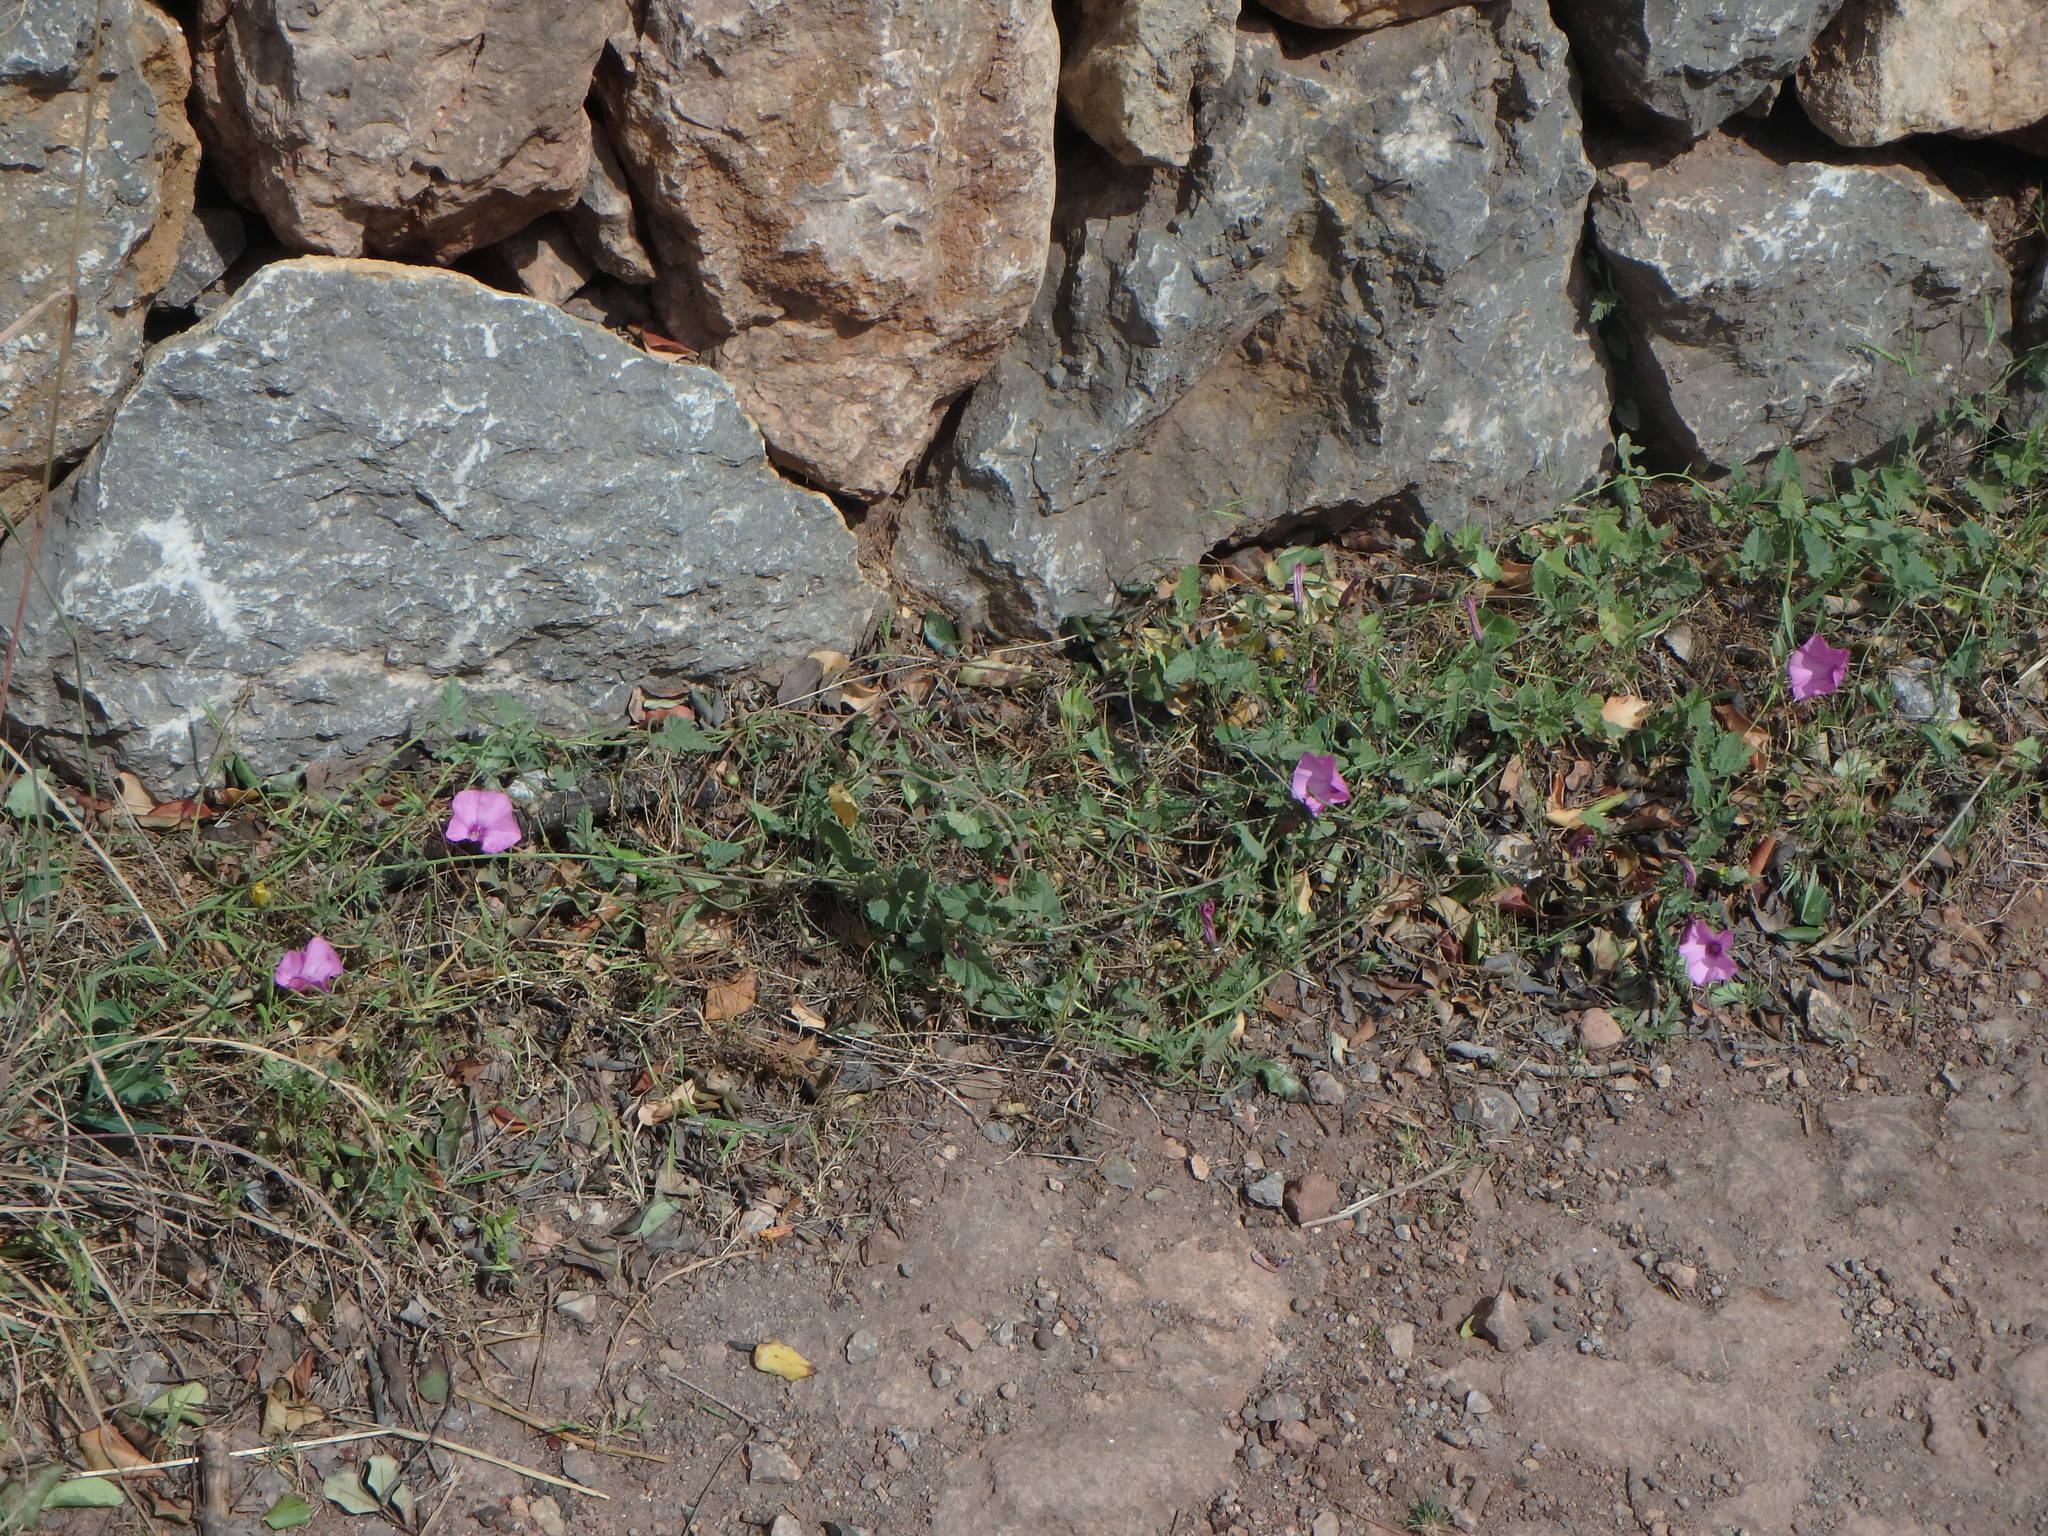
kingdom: Plantae
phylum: Tracheophyta
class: Magnoliopsida
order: Solanales
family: Convolvulaceae
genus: Convolvulus
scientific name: Convolvulus althaeoides
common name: Mallow bindweed
